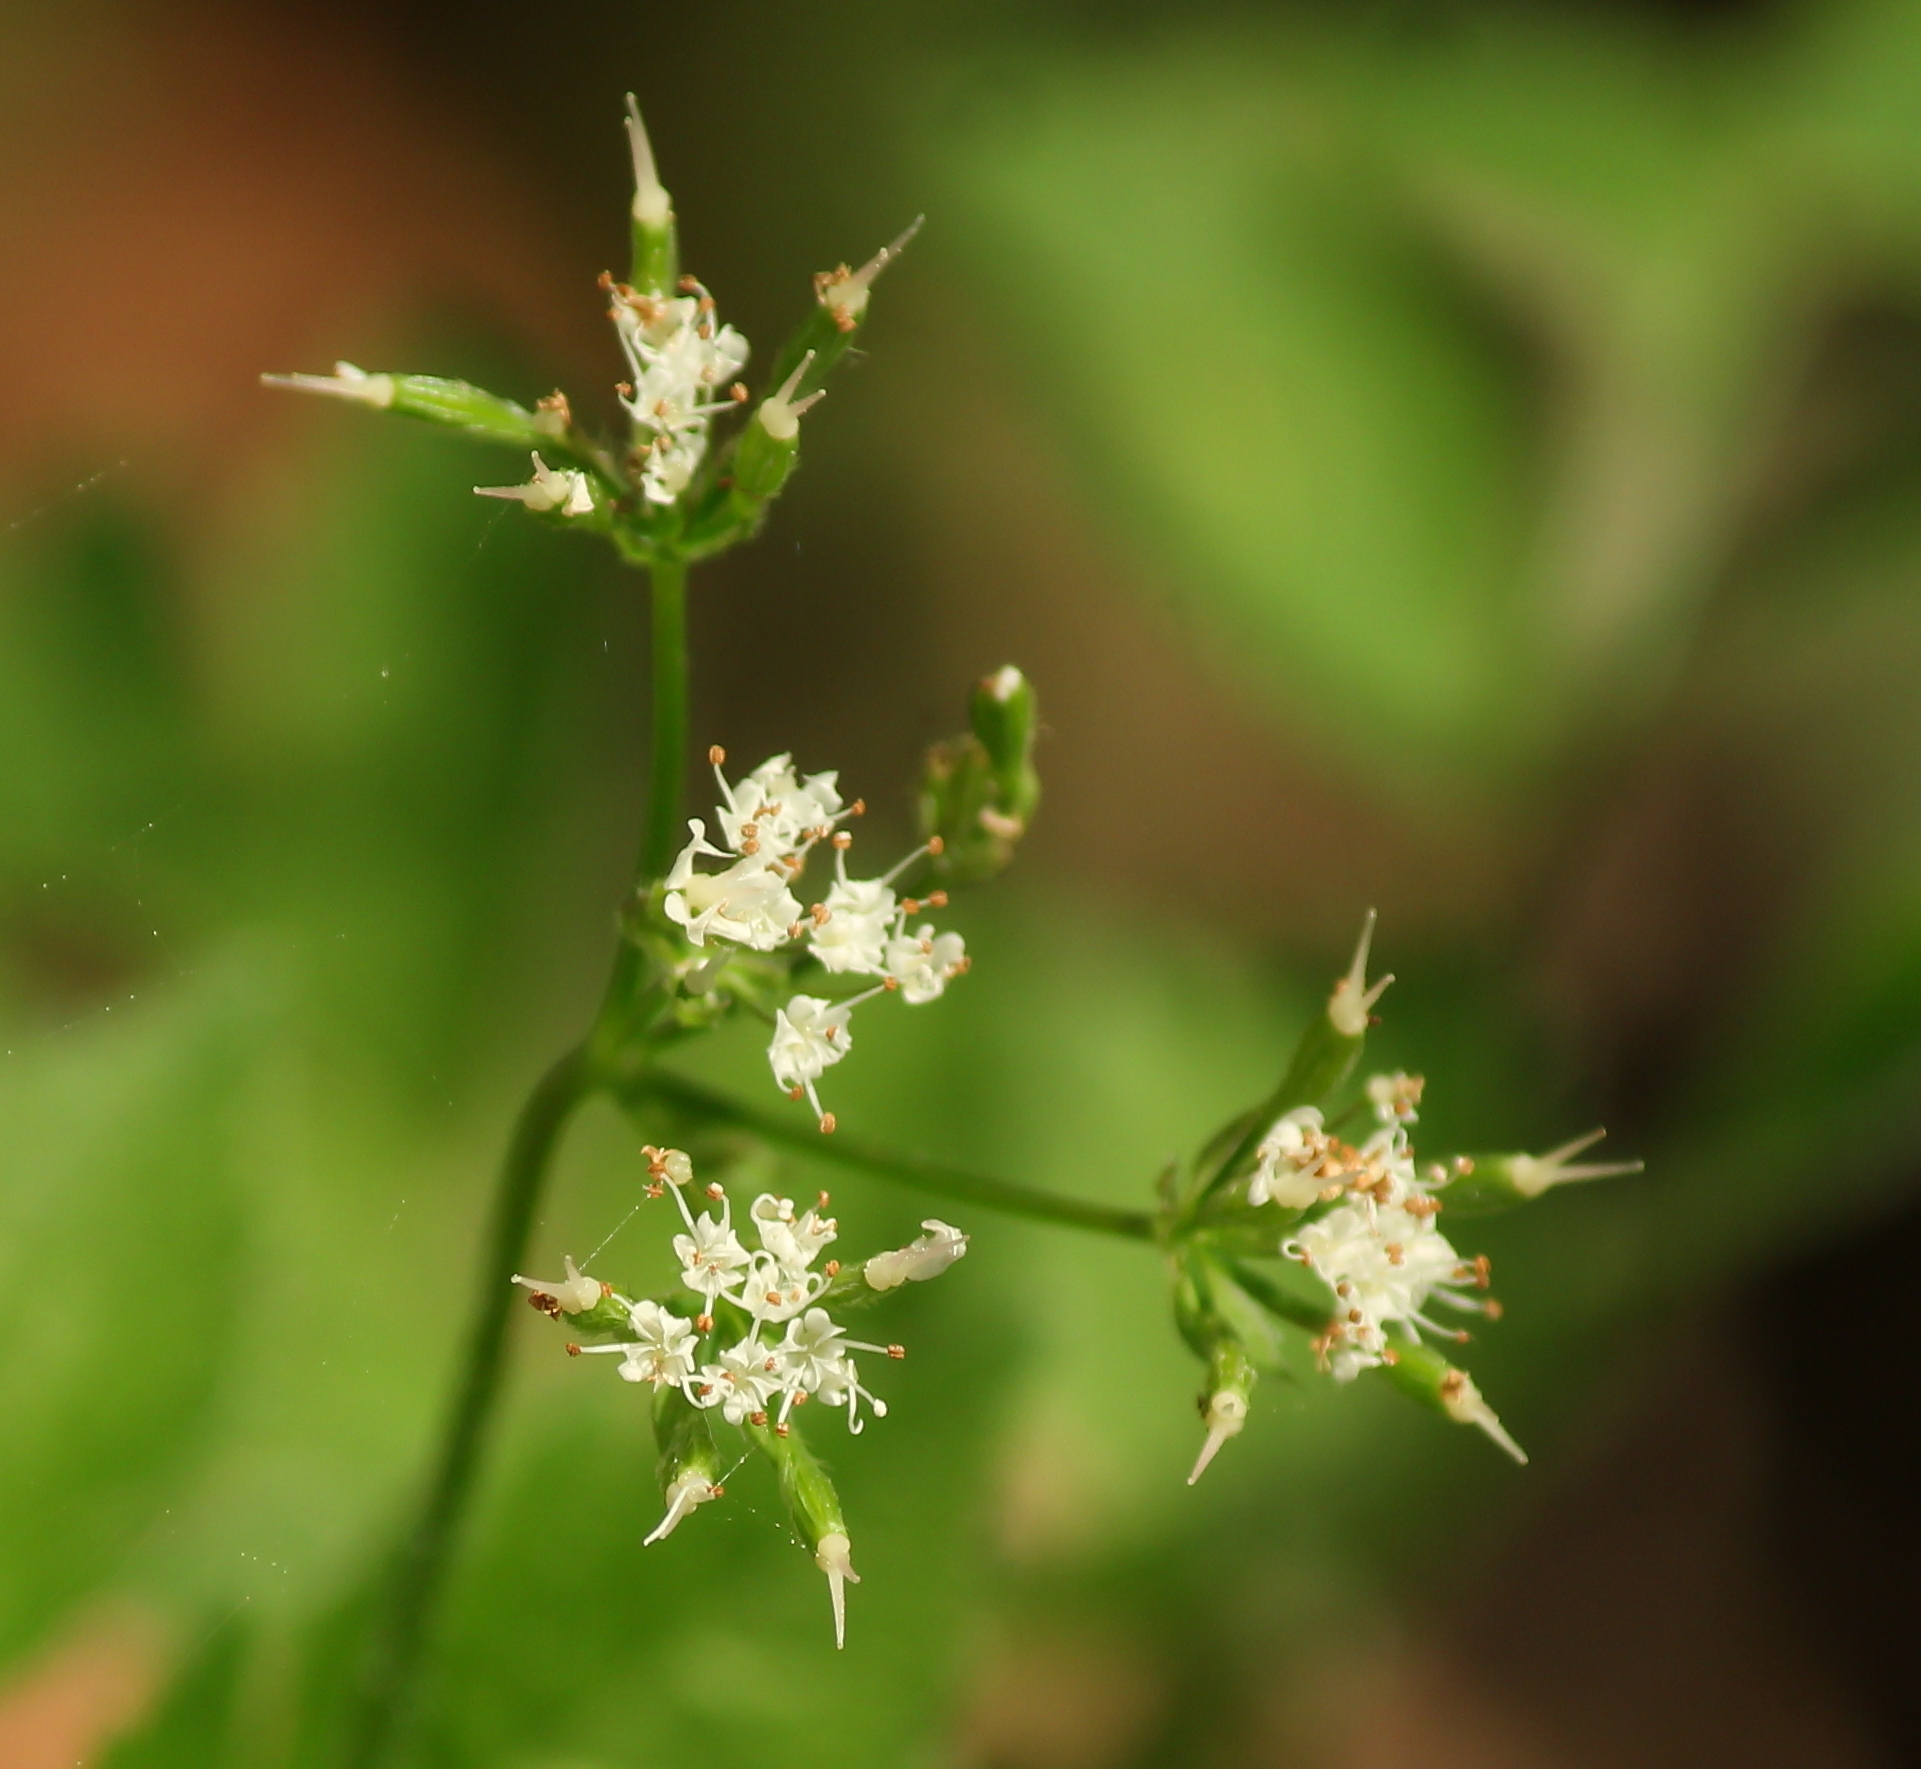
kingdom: Plantae
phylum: Tracheophyta
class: Magnoliopsida
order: Apiales
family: Apiaceae
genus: Osmorhiza
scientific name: Osmorhiza longistylis
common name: Smooth sweet cicely
